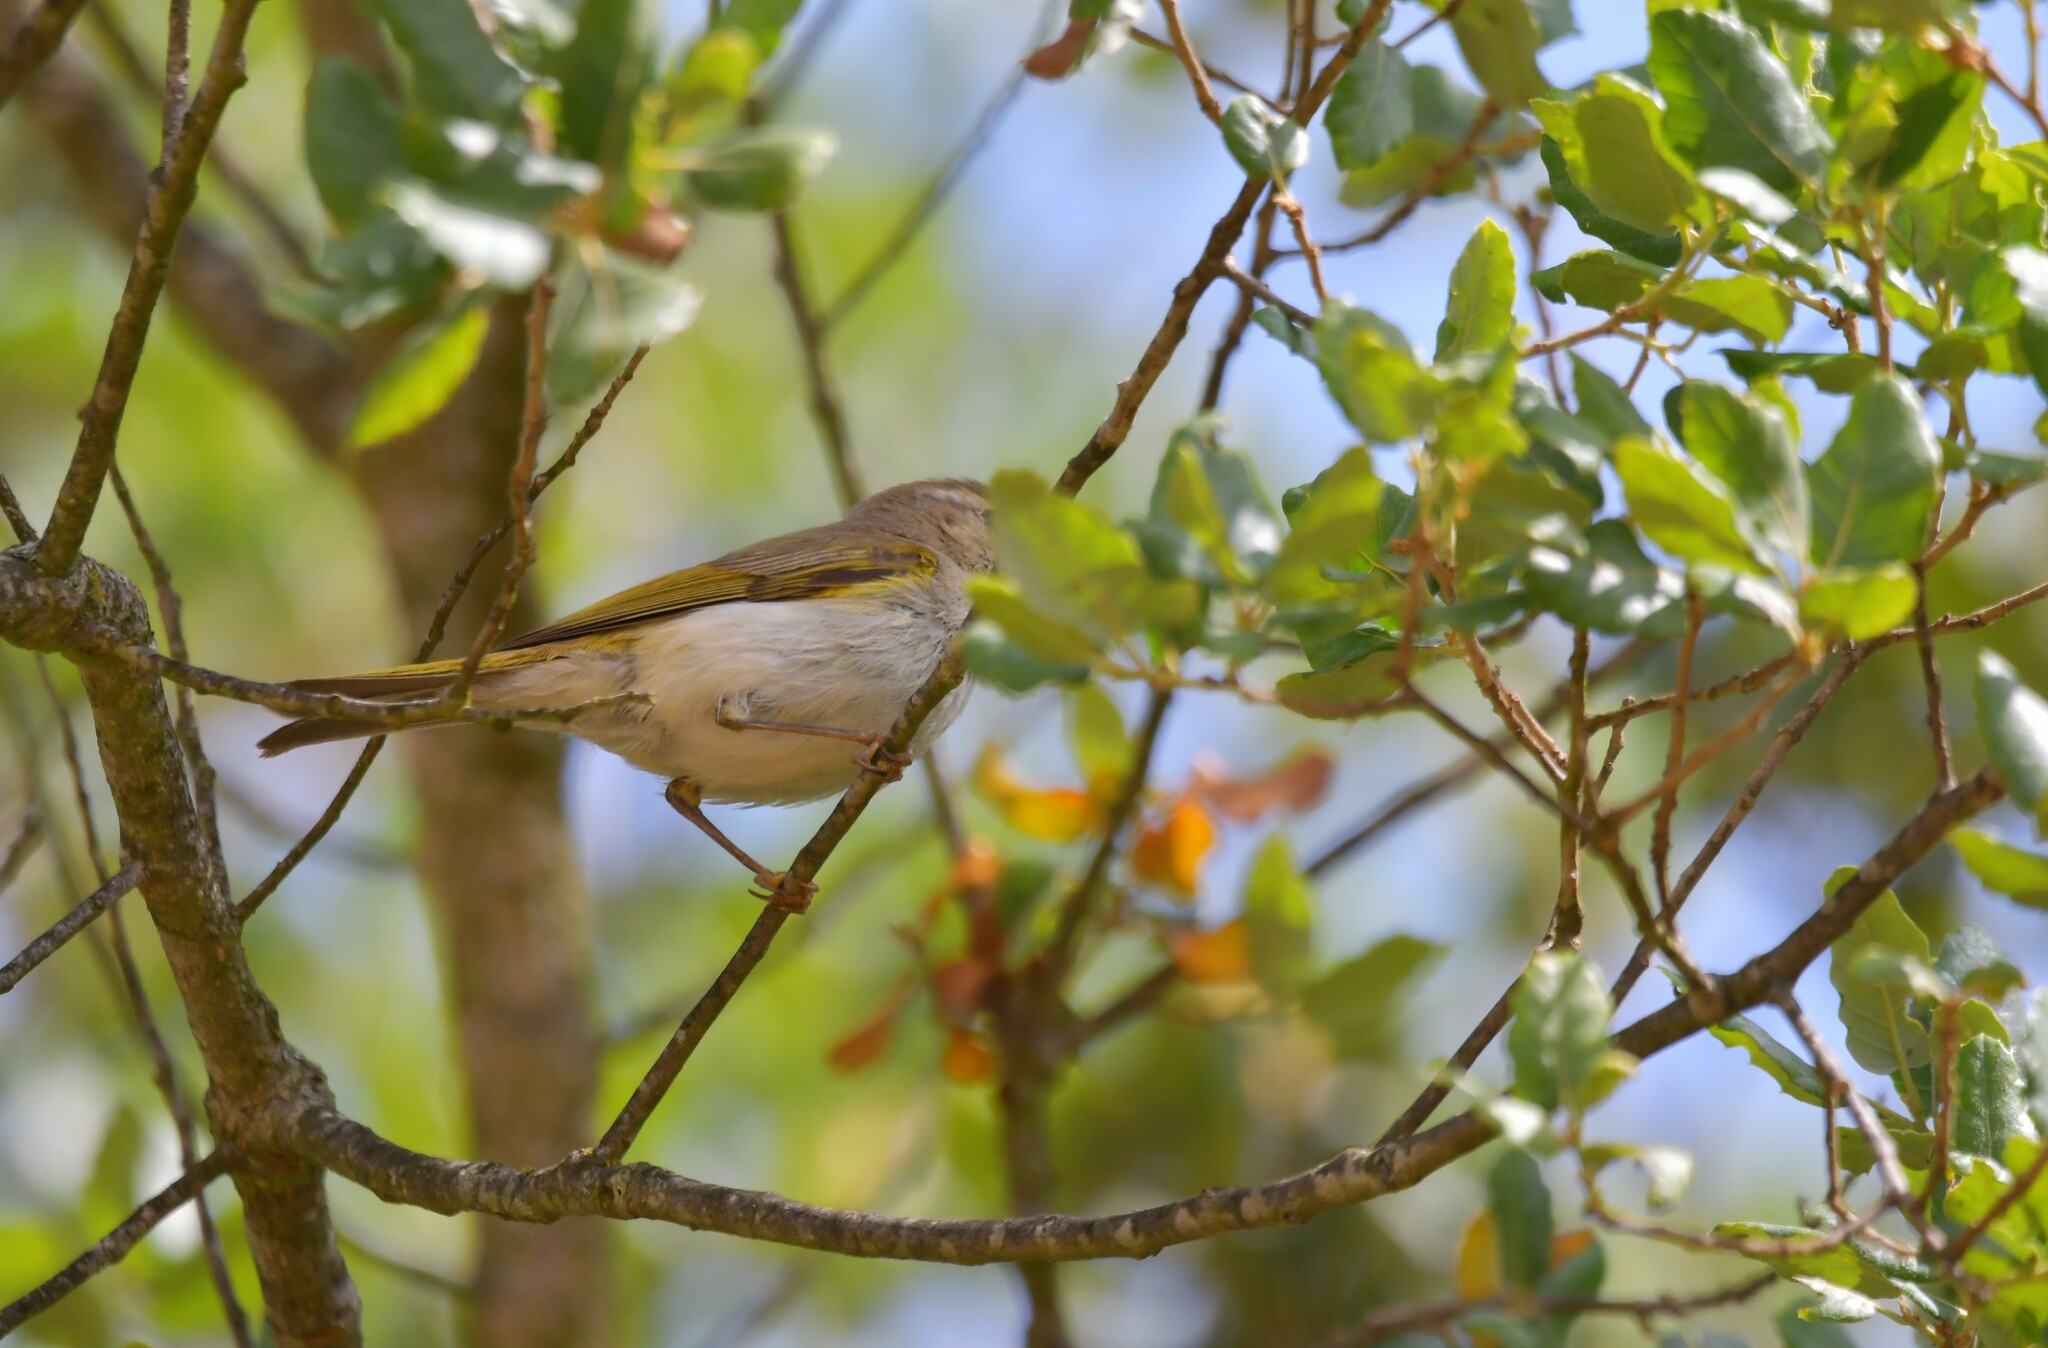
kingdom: Animalia
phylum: Chordata
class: Aves
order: Passeriformes
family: Phylloscopidae
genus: Phylloscopus
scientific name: Phylloscopus bonelli
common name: Western bonelli's warbler
